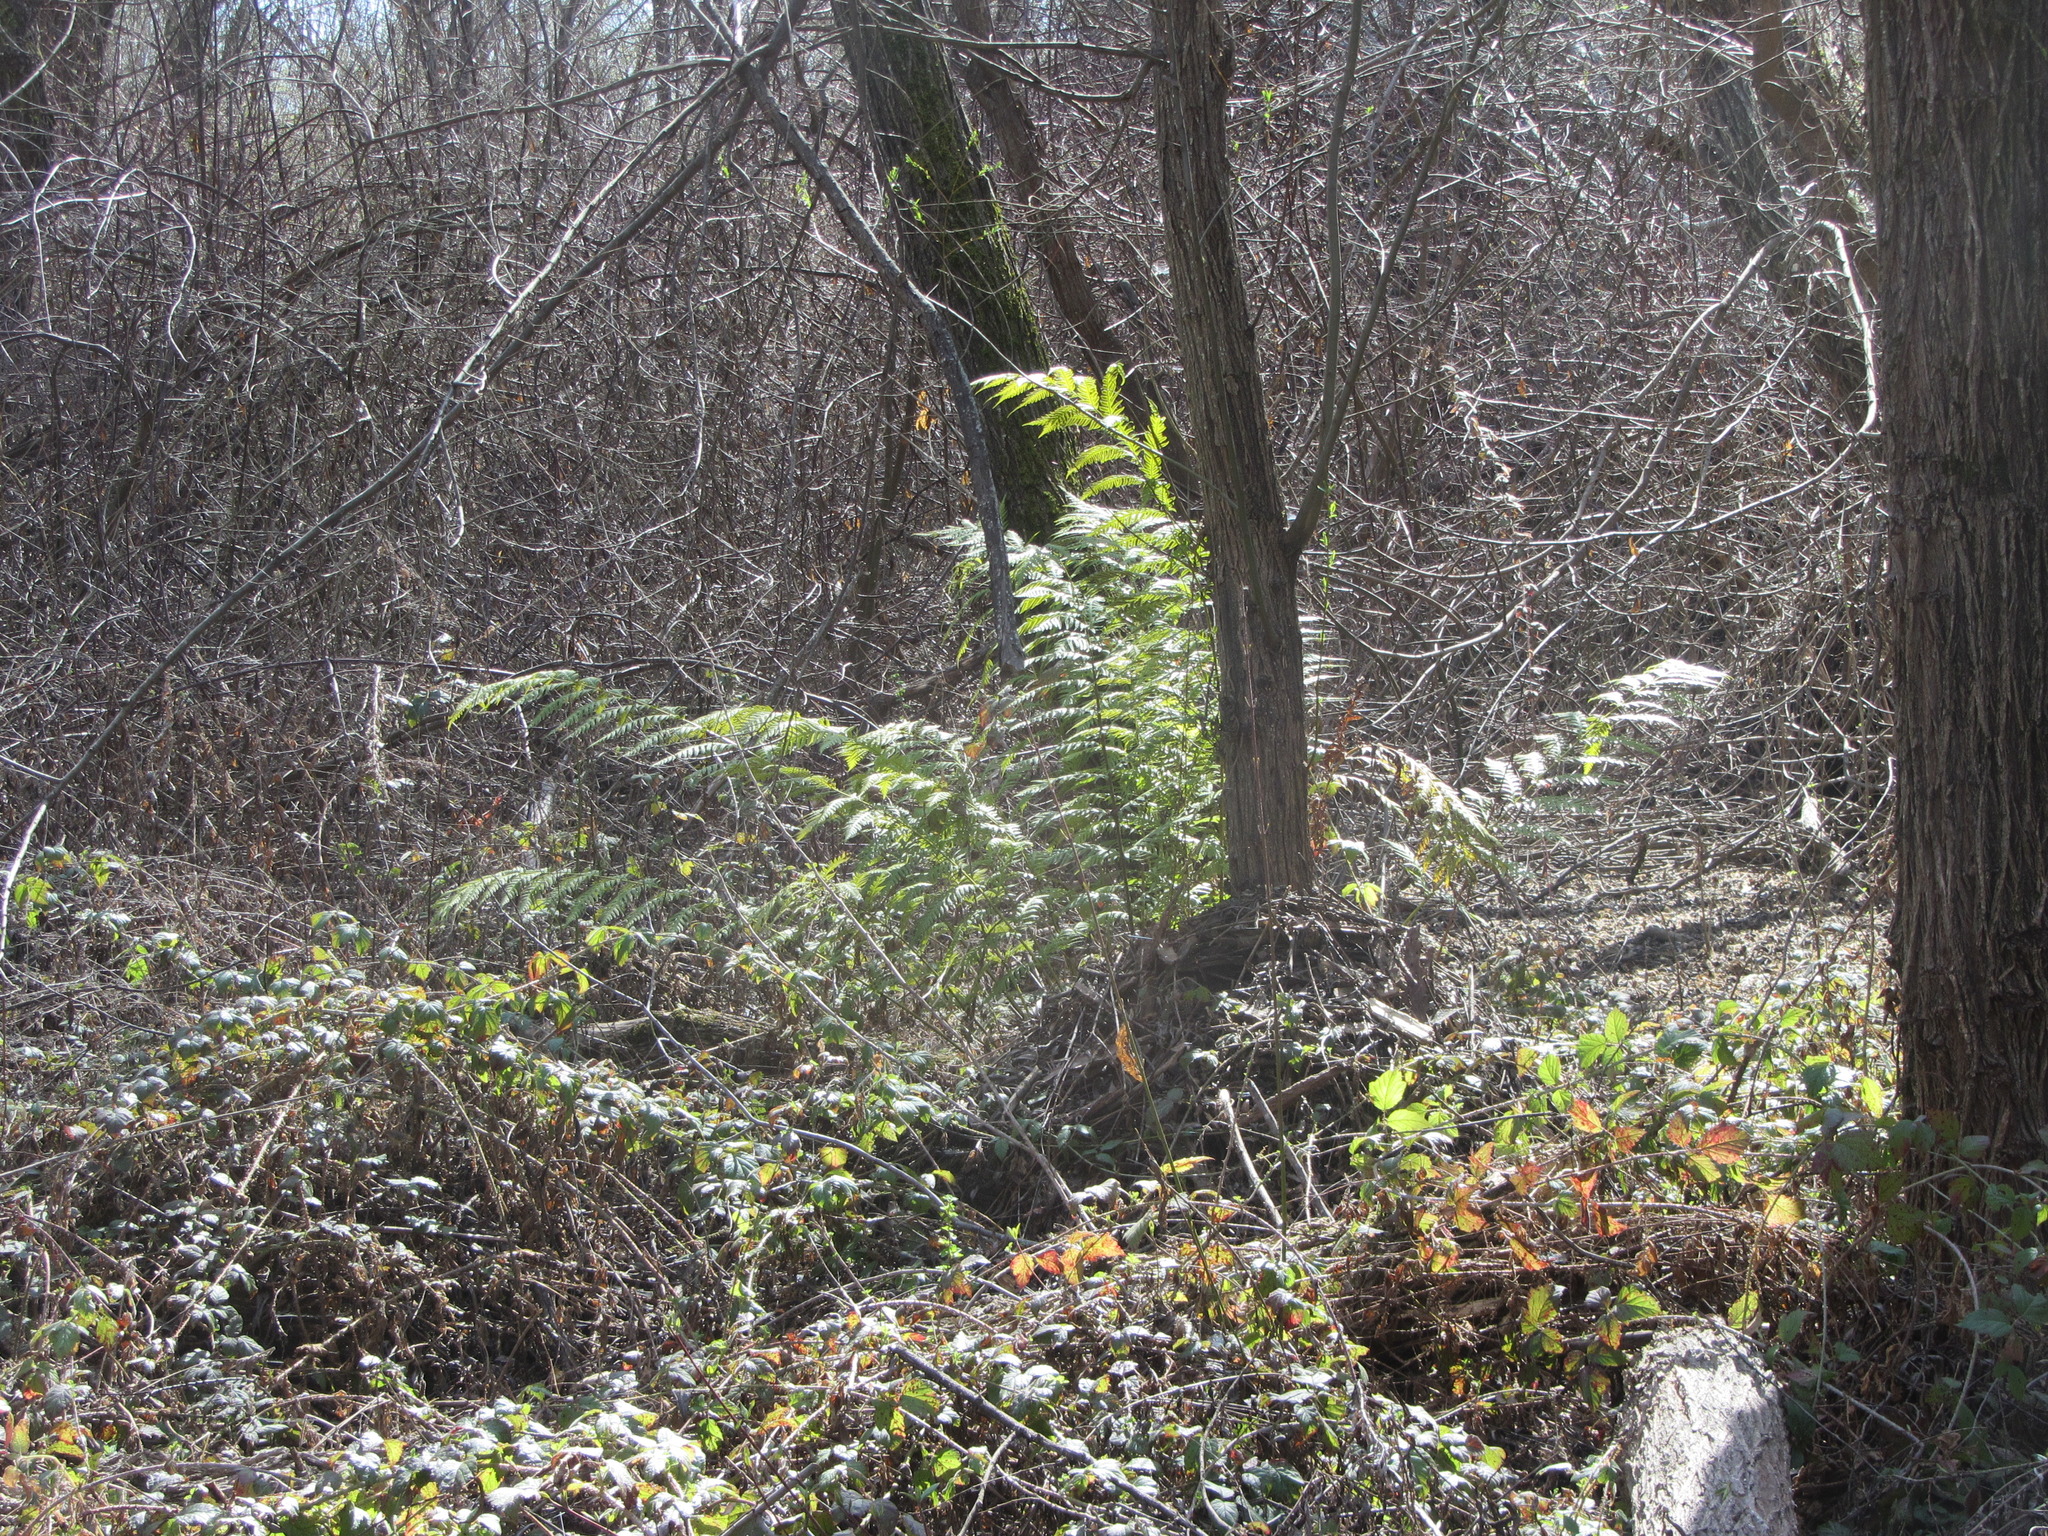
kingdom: Plantae
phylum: Tracheophyta
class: Polypodiopsida
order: Polypodiales
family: Blechnaceae
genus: Woodwardia
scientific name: Woodwardia fimbriata
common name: Giant chain fern
